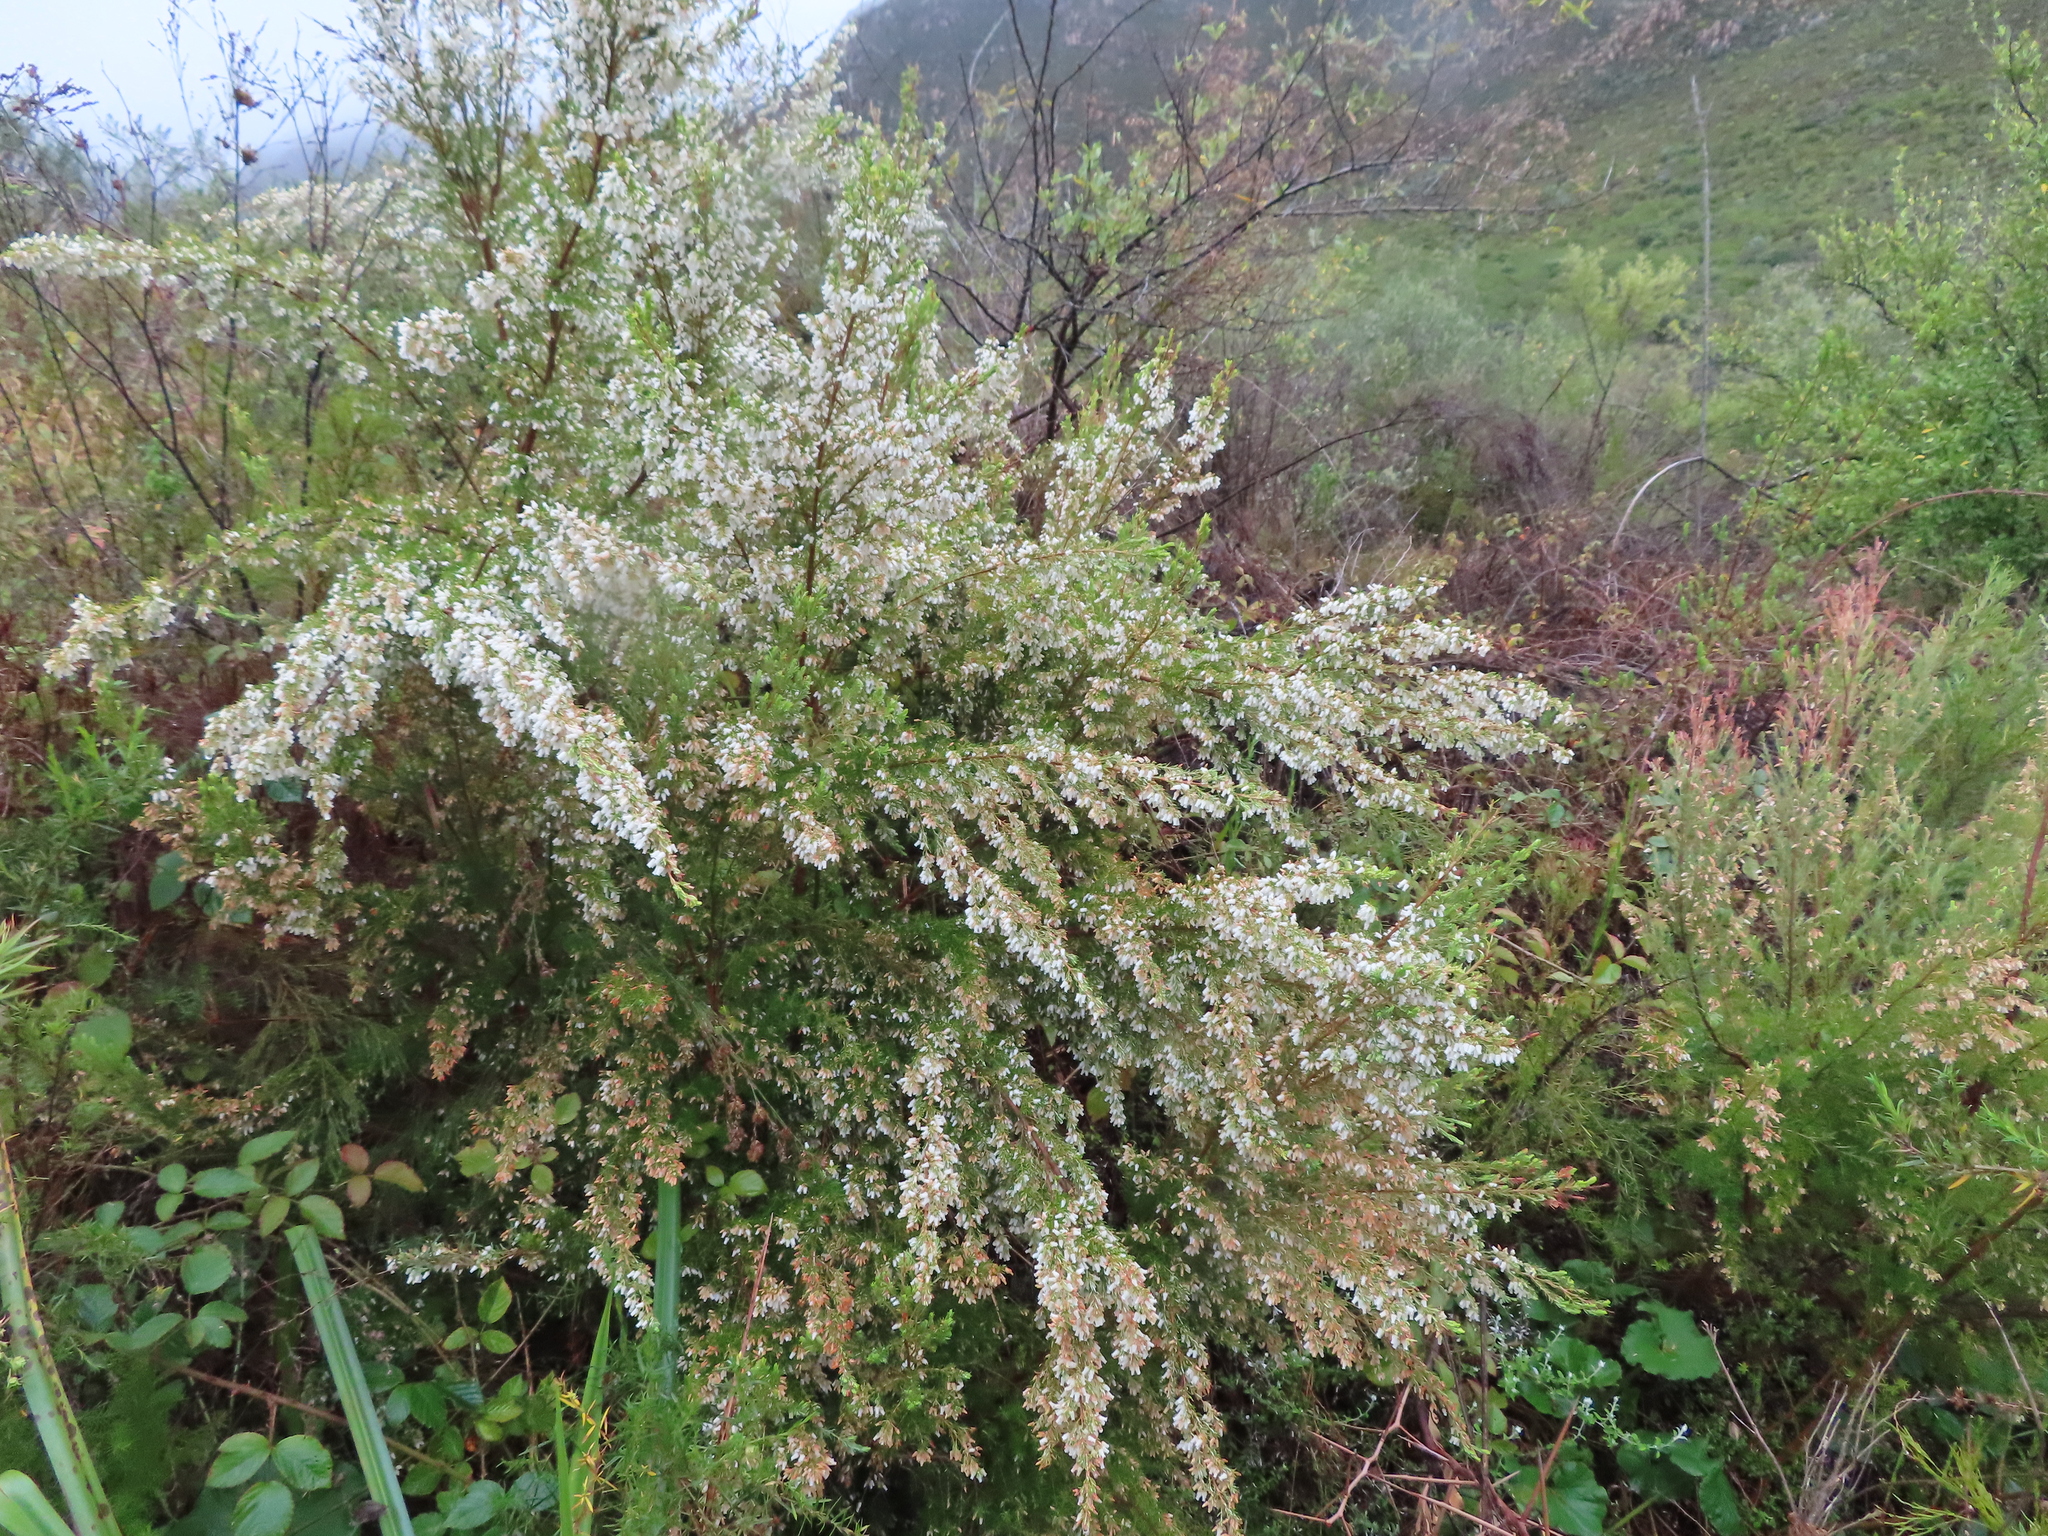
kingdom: Plantae
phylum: Tracheophyta
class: Magnoliopsida
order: Ericales
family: Ericaceae
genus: Erica
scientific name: Erica caffra
